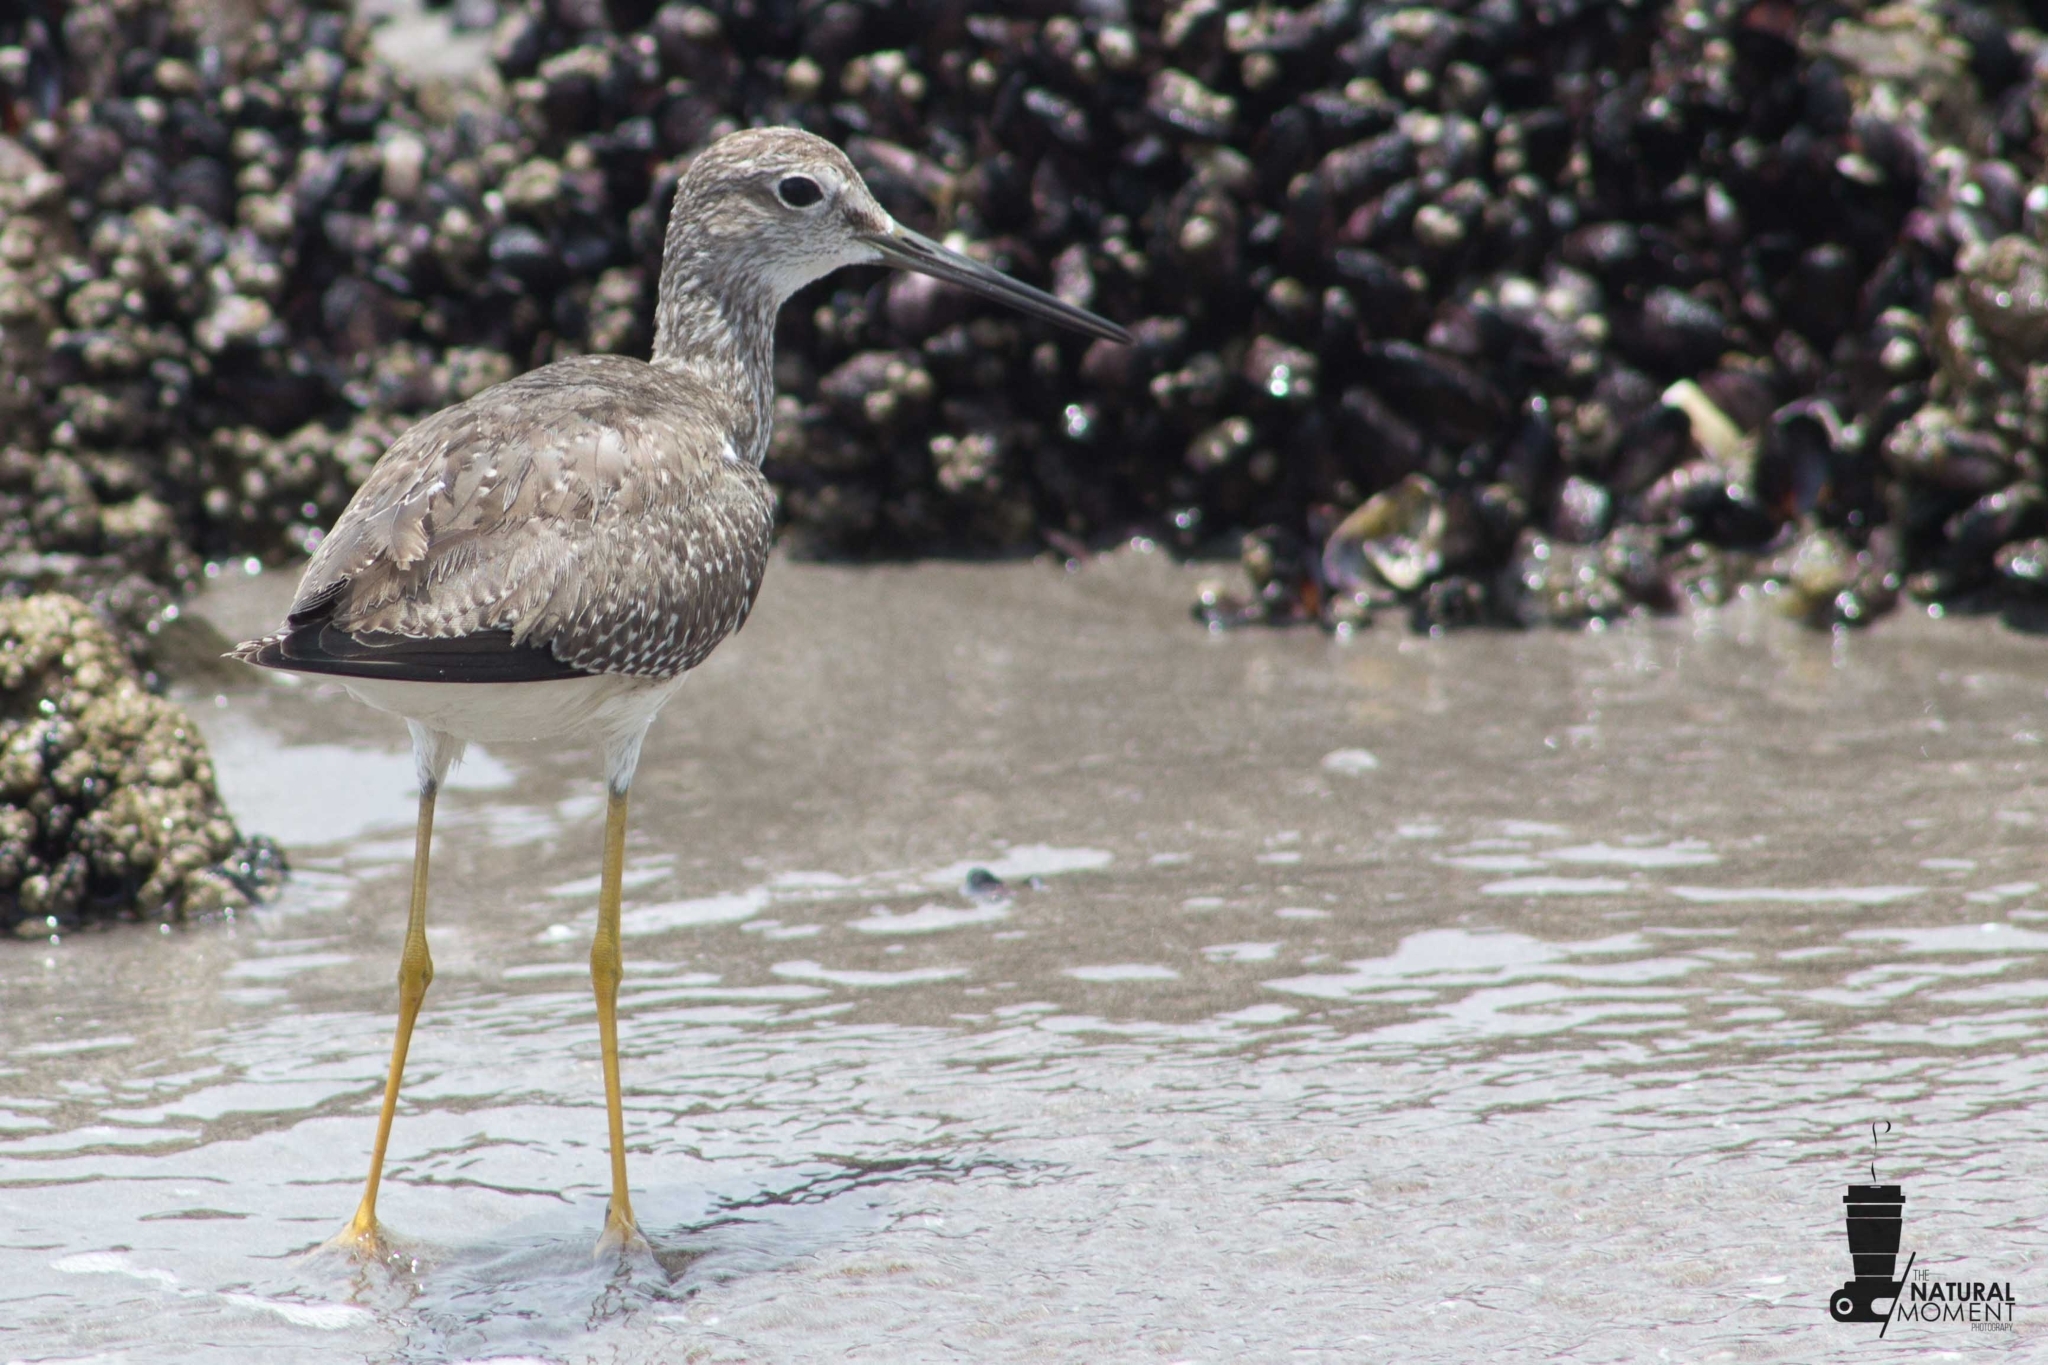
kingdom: Animalia
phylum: Chordata
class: Aves
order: Charadriiformes
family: Scolopacidae
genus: Tringa
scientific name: Tringa melanoleuca
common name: Greater yellowlegs
